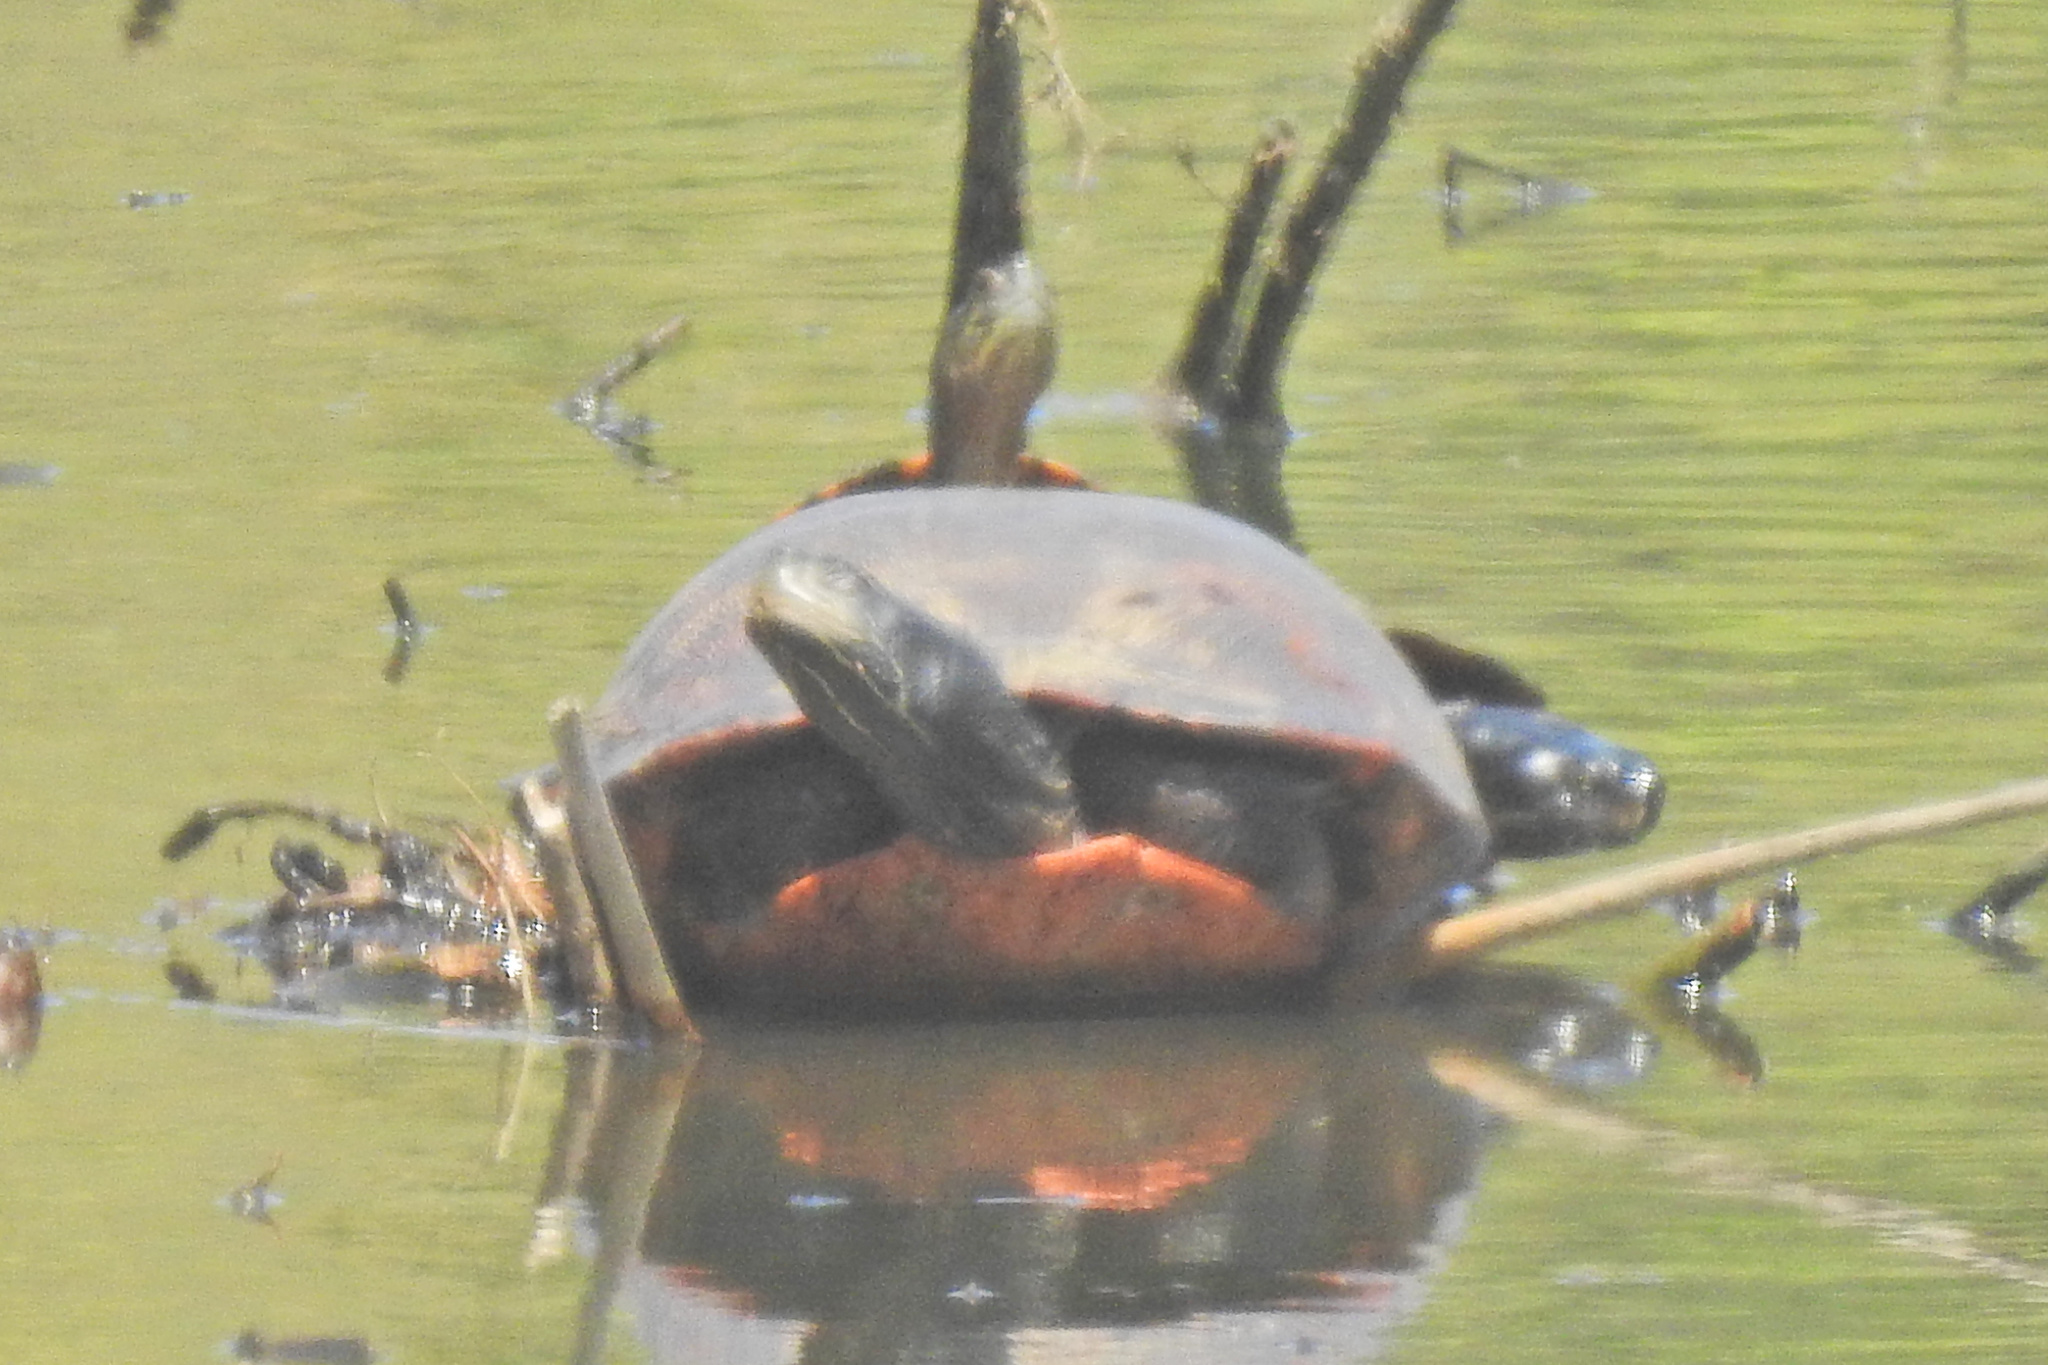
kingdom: Animalia
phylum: Chordata
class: Testudines
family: Emydidae
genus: Pseudemys
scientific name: Pseudemys rubriventris
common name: American red-bellied turtle
